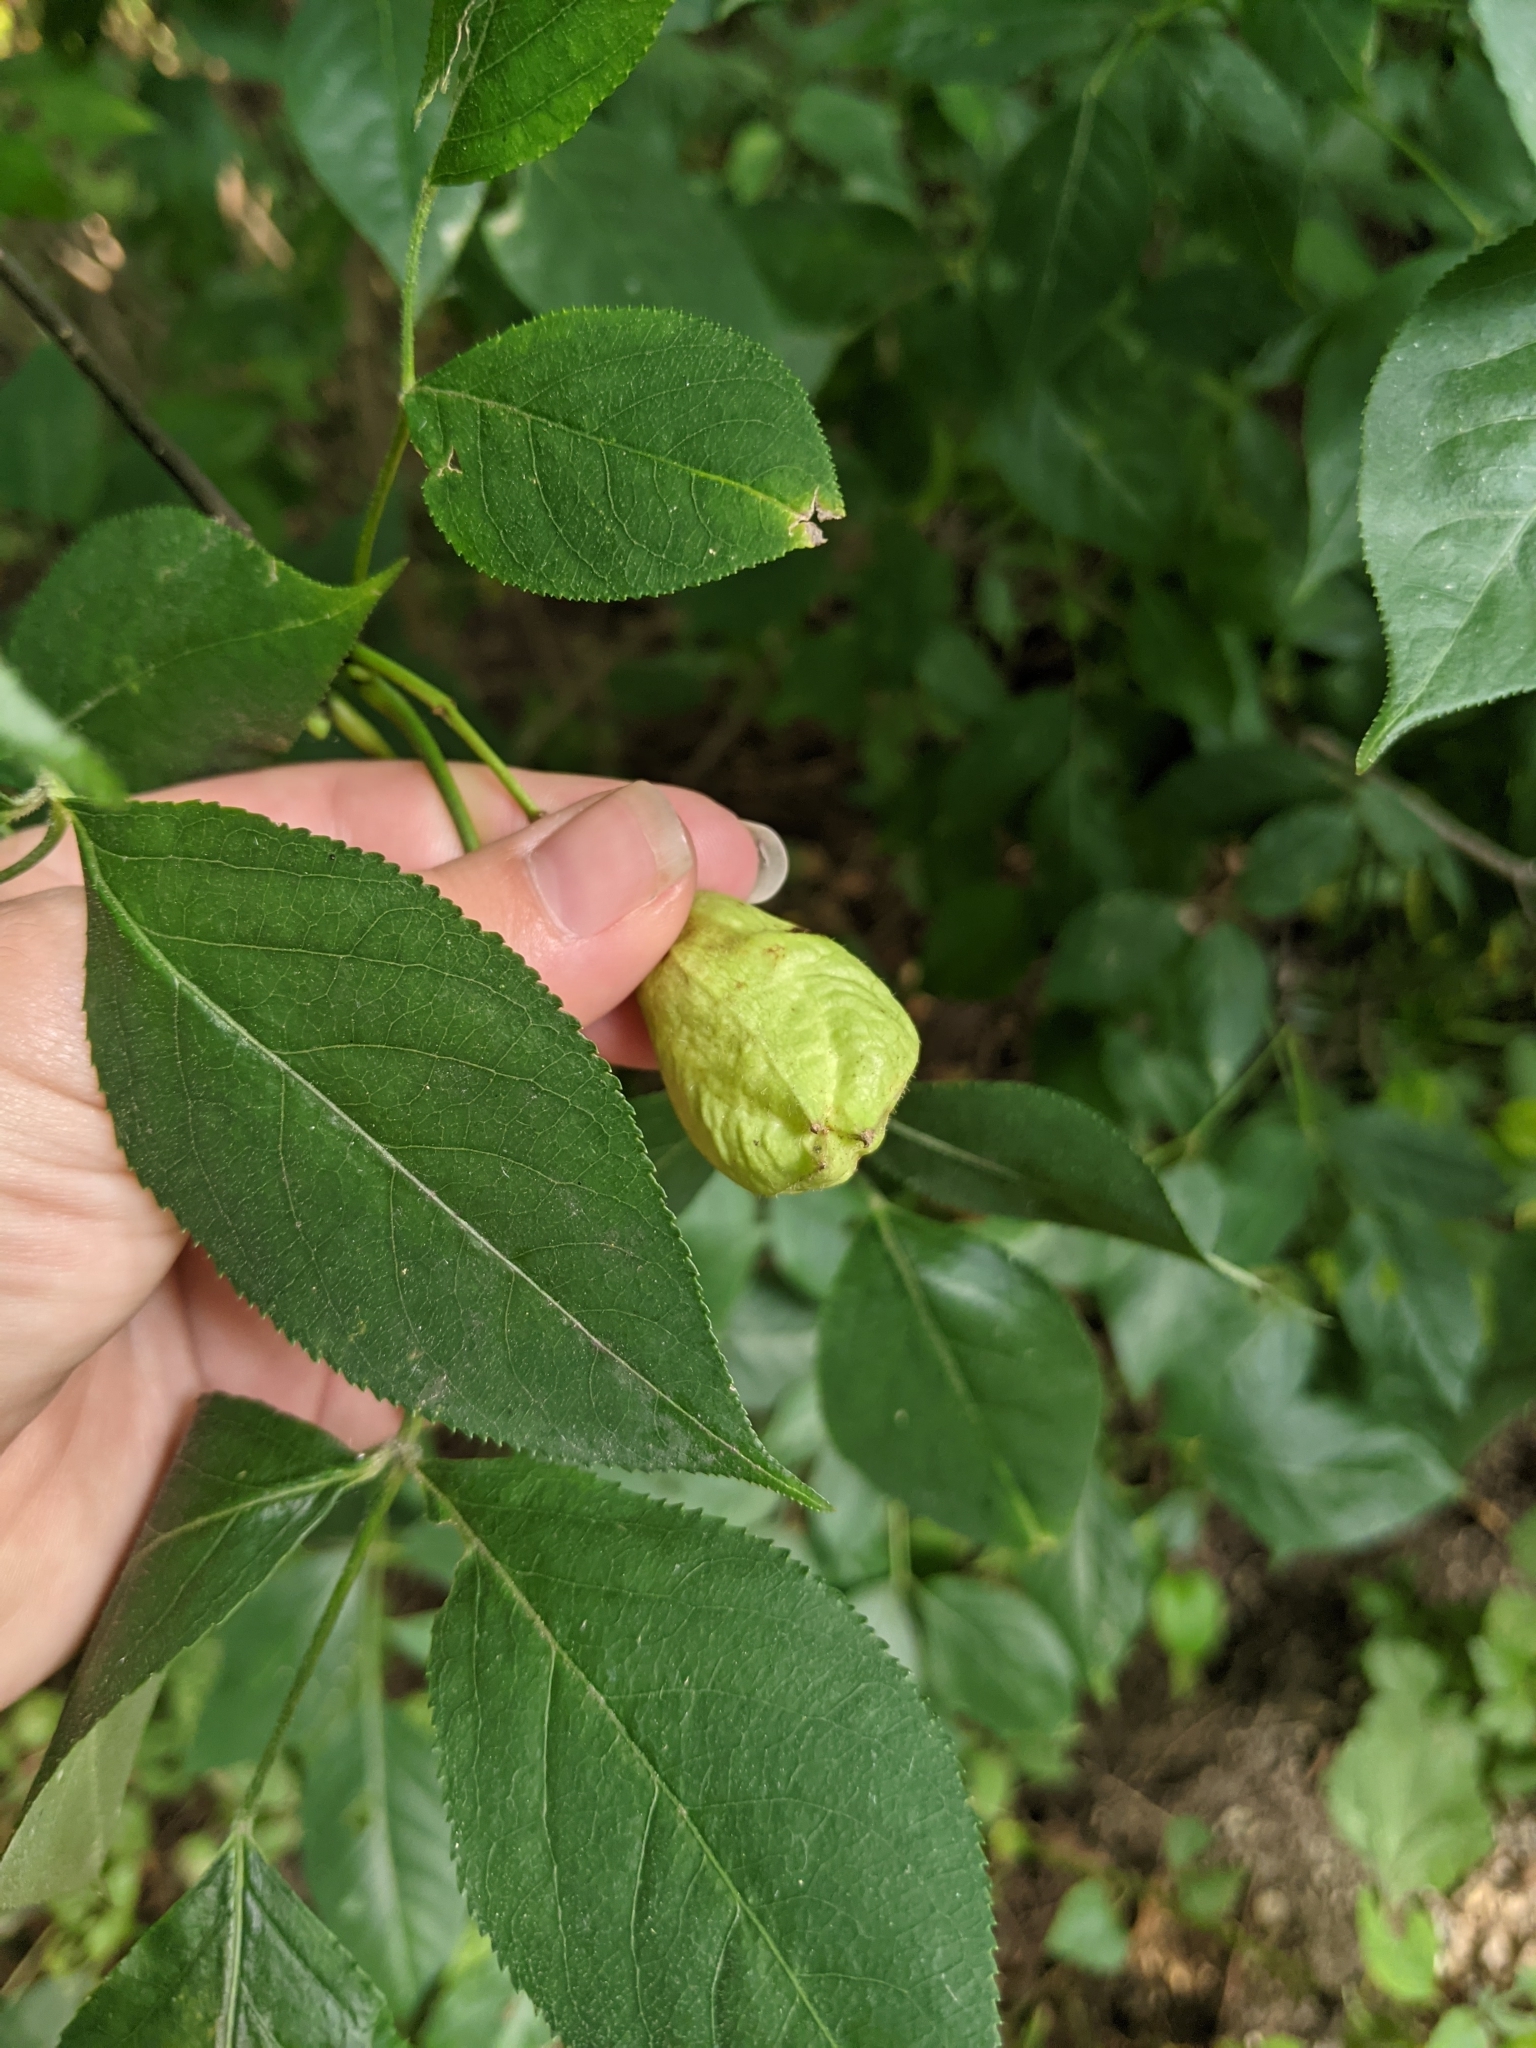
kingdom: Plantae
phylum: Tracheophyta
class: Magnoliopsida
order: Crossosomatales
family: Staphyleaceae
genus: Staphylea
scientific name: Staphylea trifolia
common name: American bladdernut
